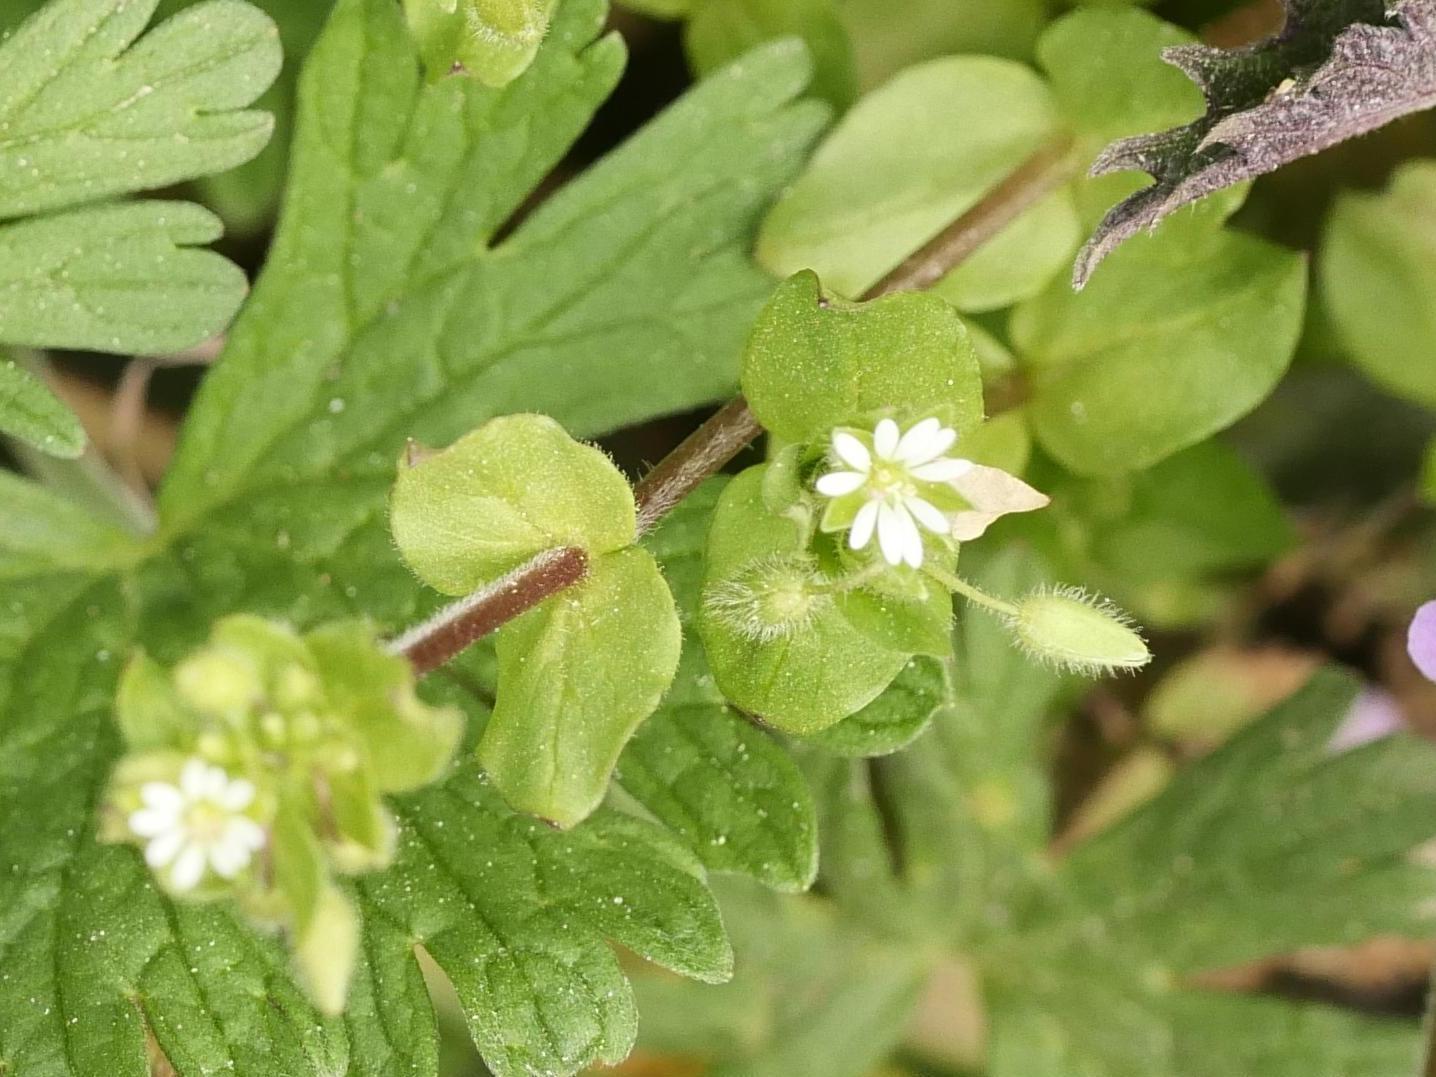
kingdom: Plantae
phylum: Tracheophyta
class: Magnoliopsida
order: Caryophyllales
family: Caryophyllaceae
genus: Stellaria
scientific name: Stellaria media
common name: Common chickweed
